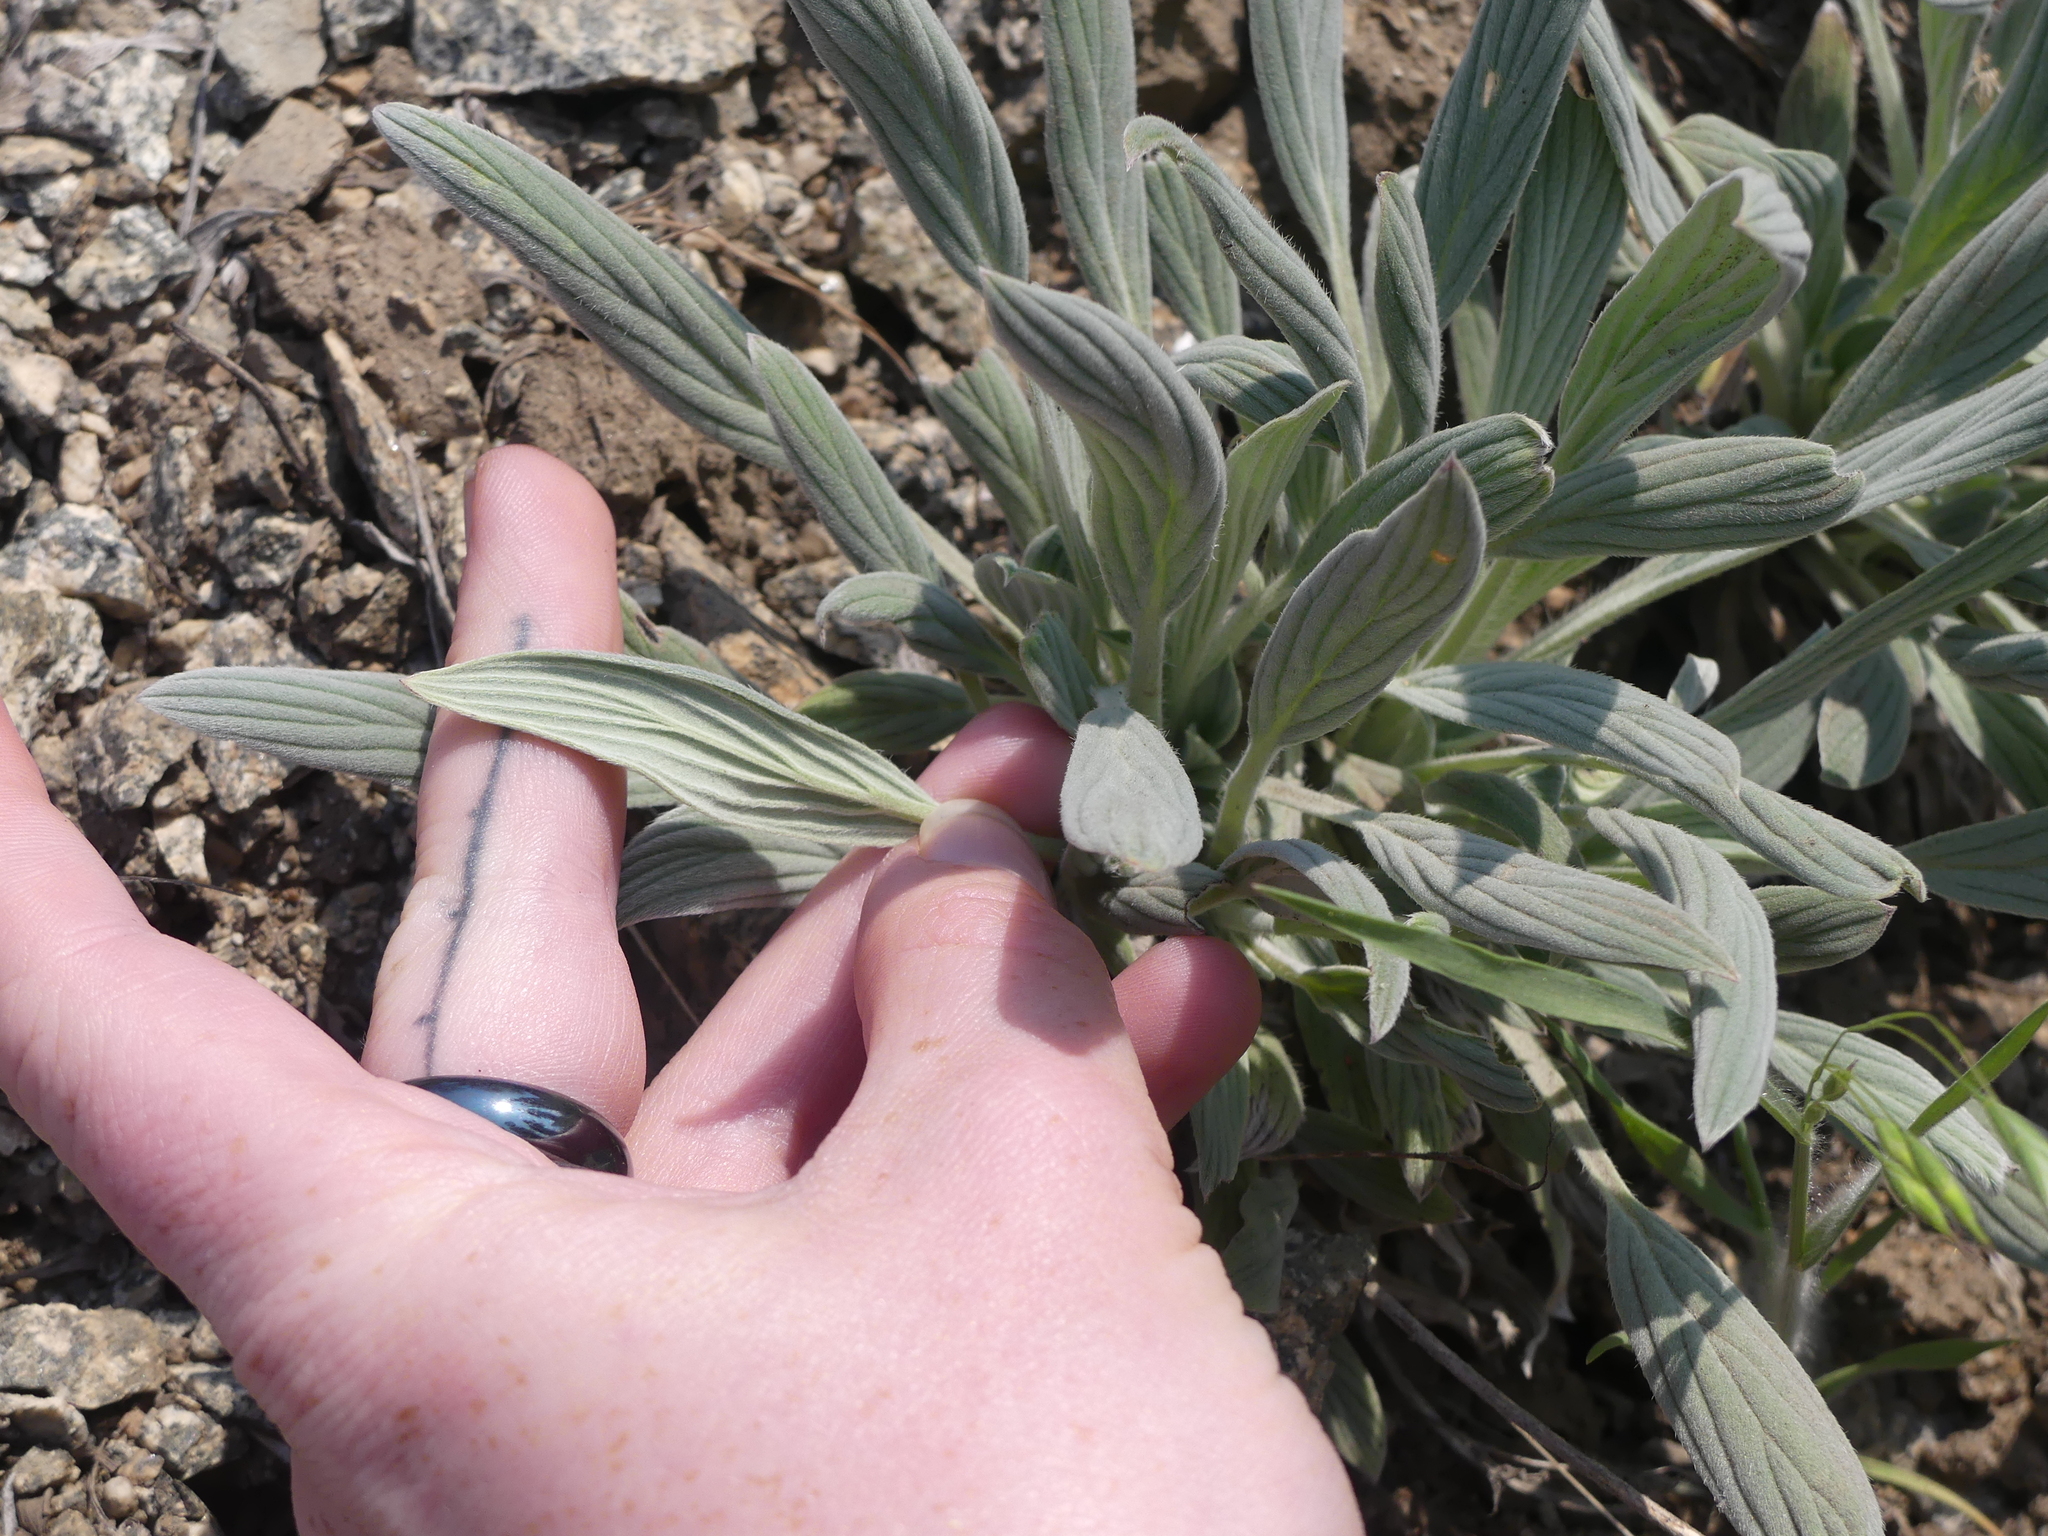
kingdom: Plantae
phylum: Tracheophyta
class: Magnoliopsida
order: Boraginales
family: Hydrophyllaceae
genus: Phacelia
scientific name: Phacelia hastata
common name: Silver-leaved phacelia
